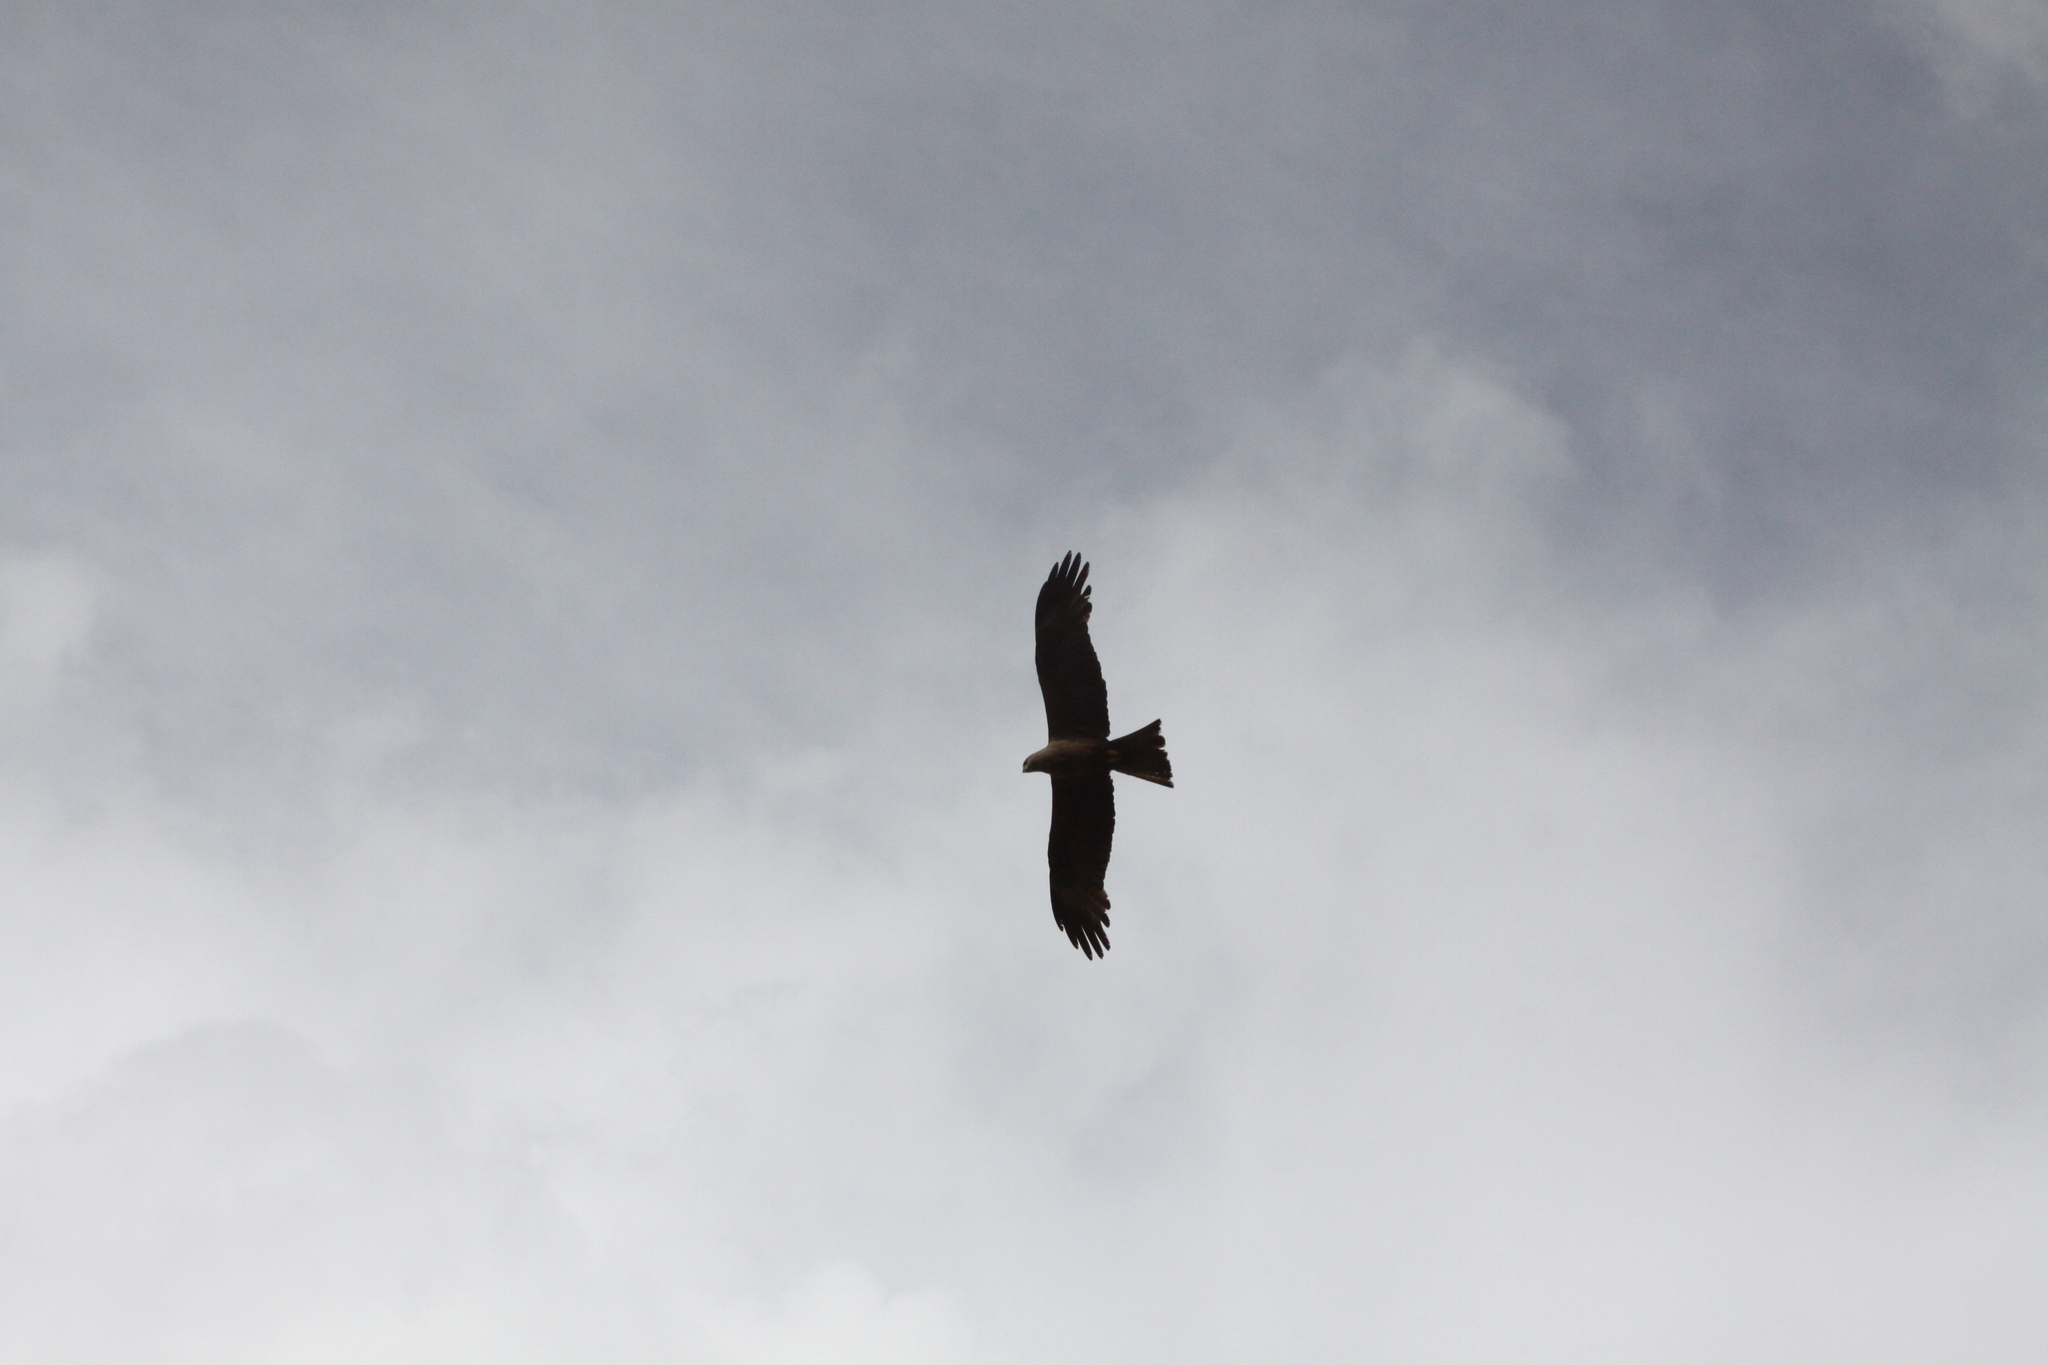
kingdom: Animalia
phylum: Chordata
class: Aves
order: Accipitriformes
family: Accipitridae
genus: Milvus
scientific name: Milvus migrans
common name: Black kite
